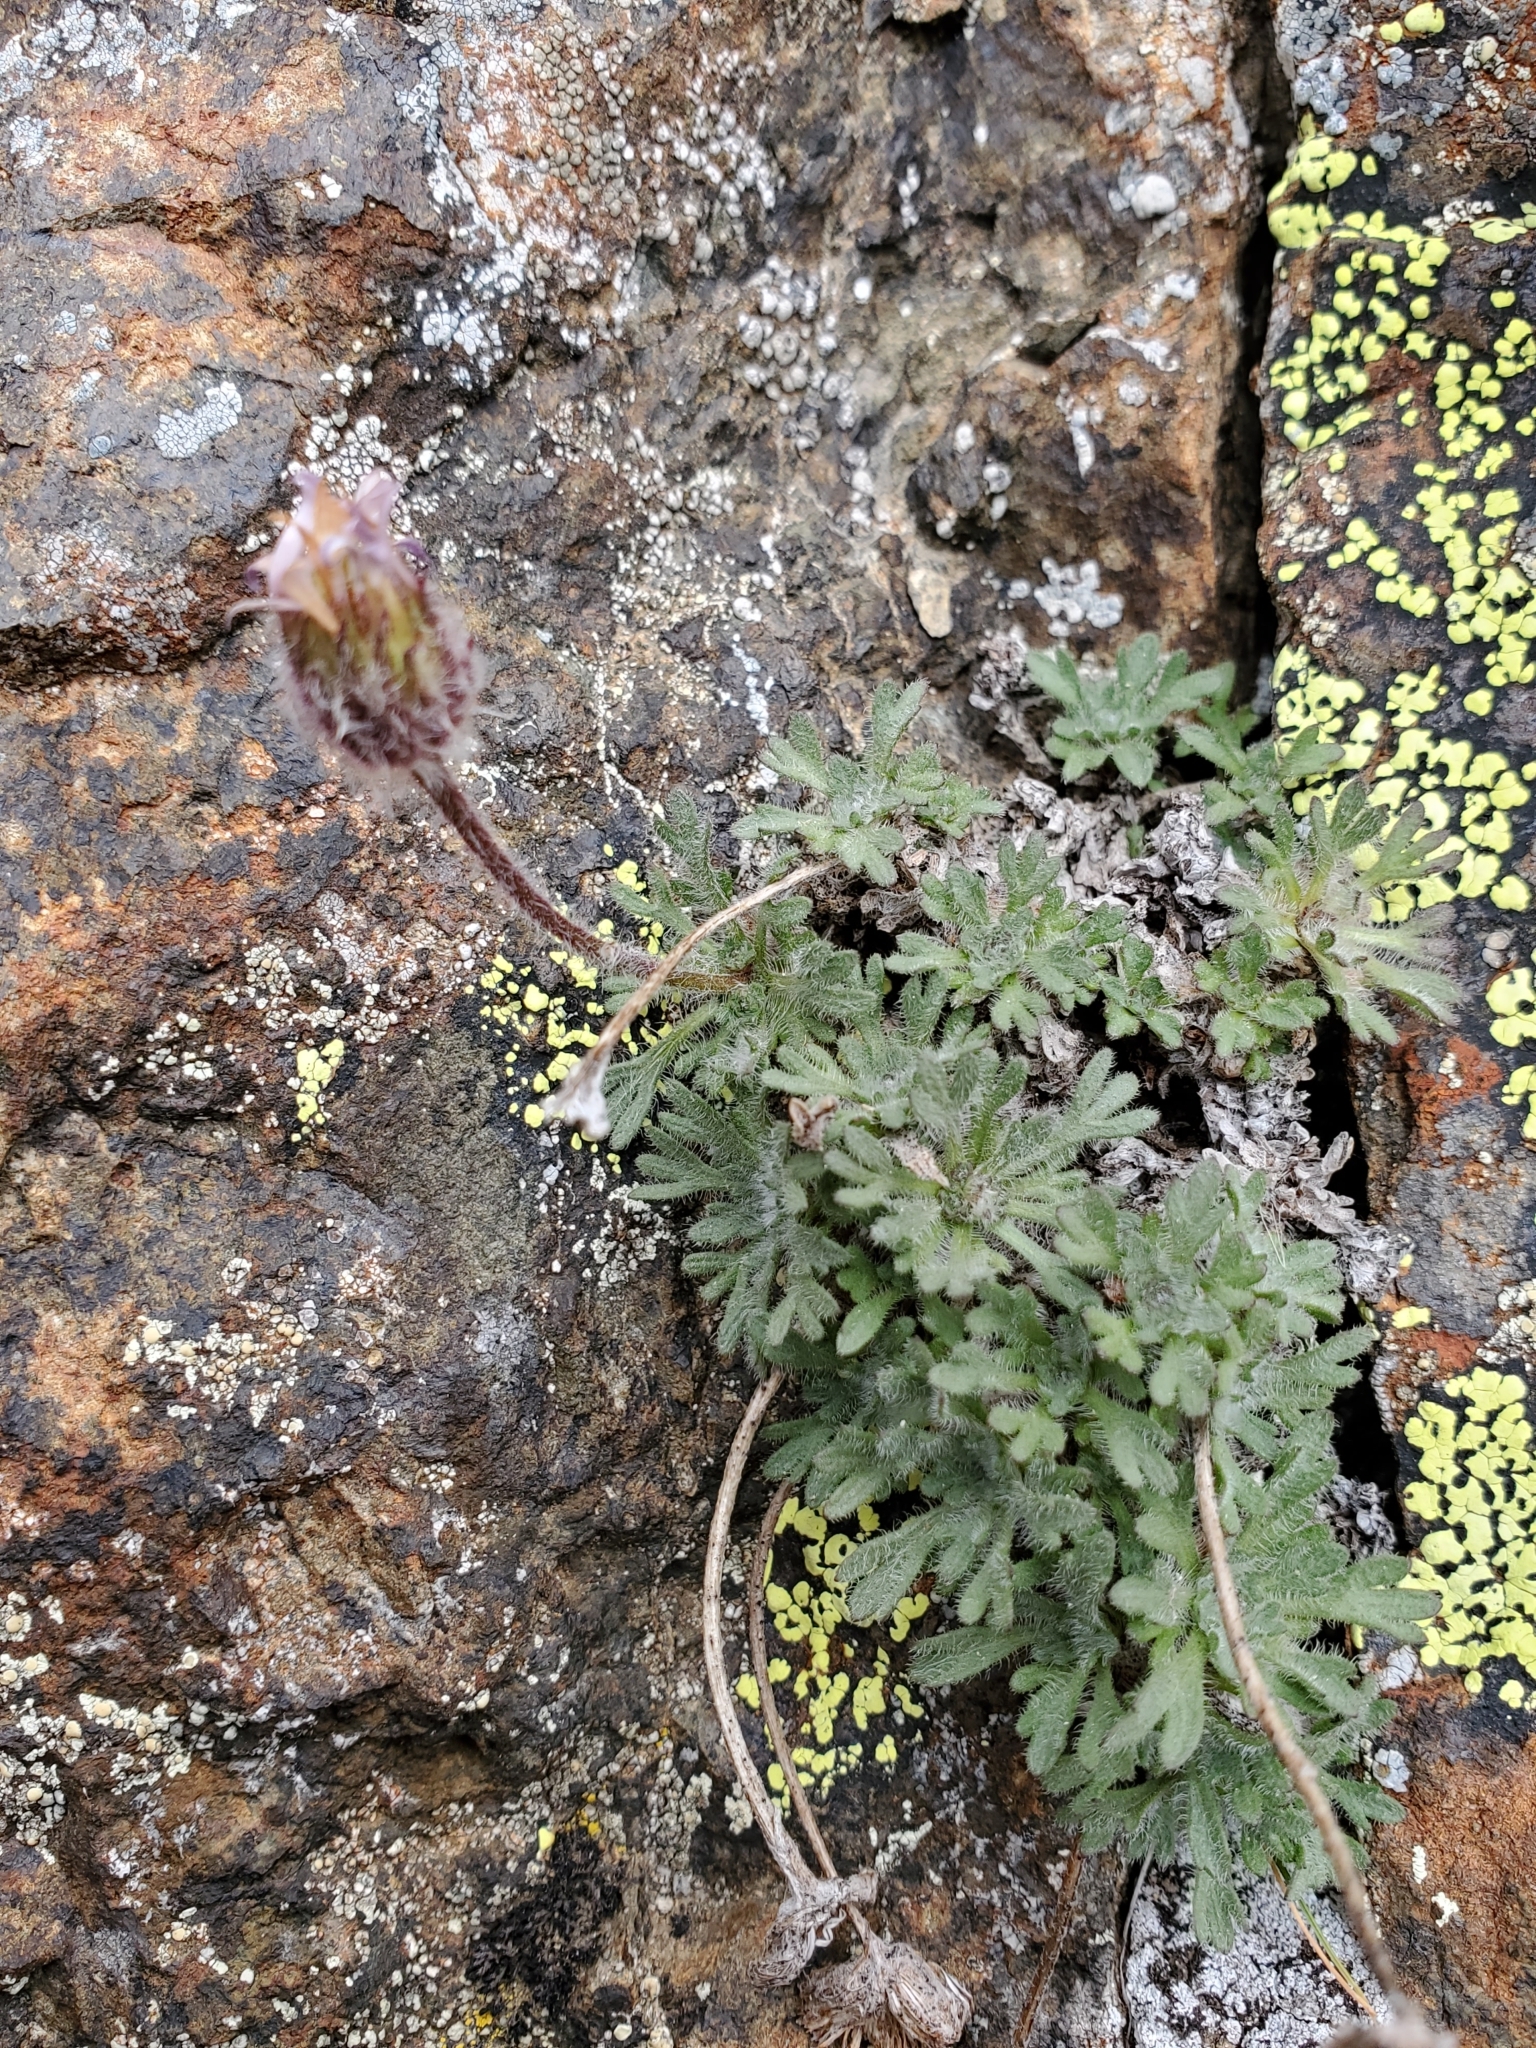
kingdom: Plantae
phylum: Tracheophyta
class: Magnoliopsida
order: Asterales
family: Asteraceae
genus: Erigeron
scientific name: Erigeron salishii
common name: Salish daisy
